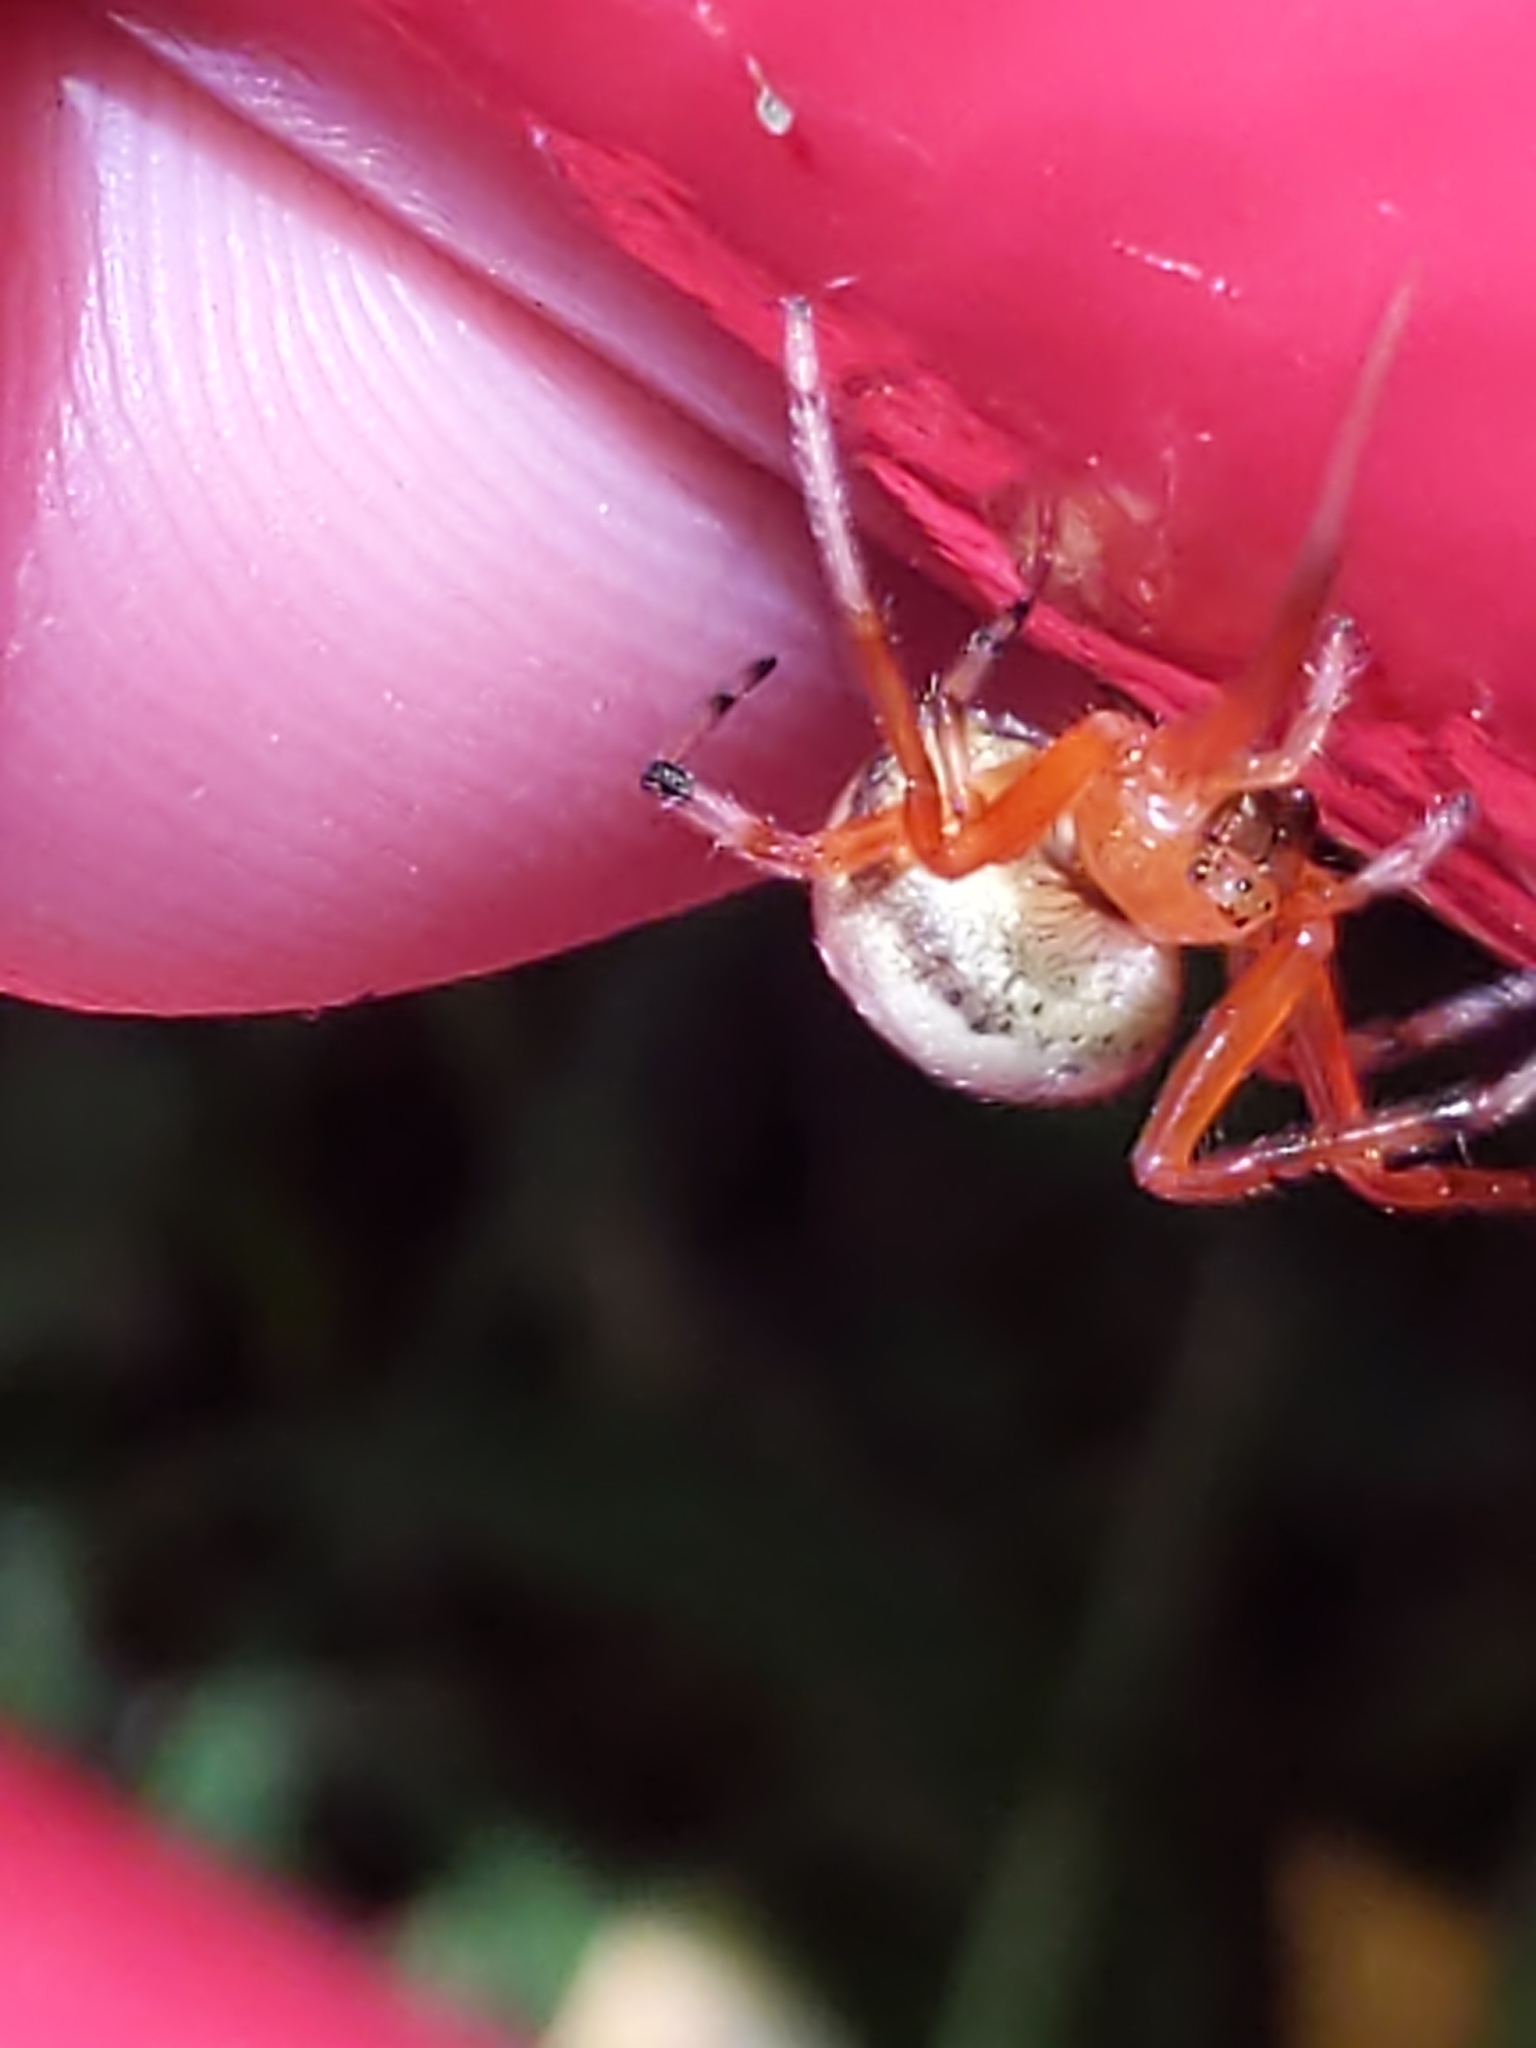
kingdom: Animalia
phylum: Arthropoda
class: Arachnida
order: Araneae
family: Araneidae
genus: Araneus
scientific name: Araneus thaddeus
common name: Lattice orbweaver
